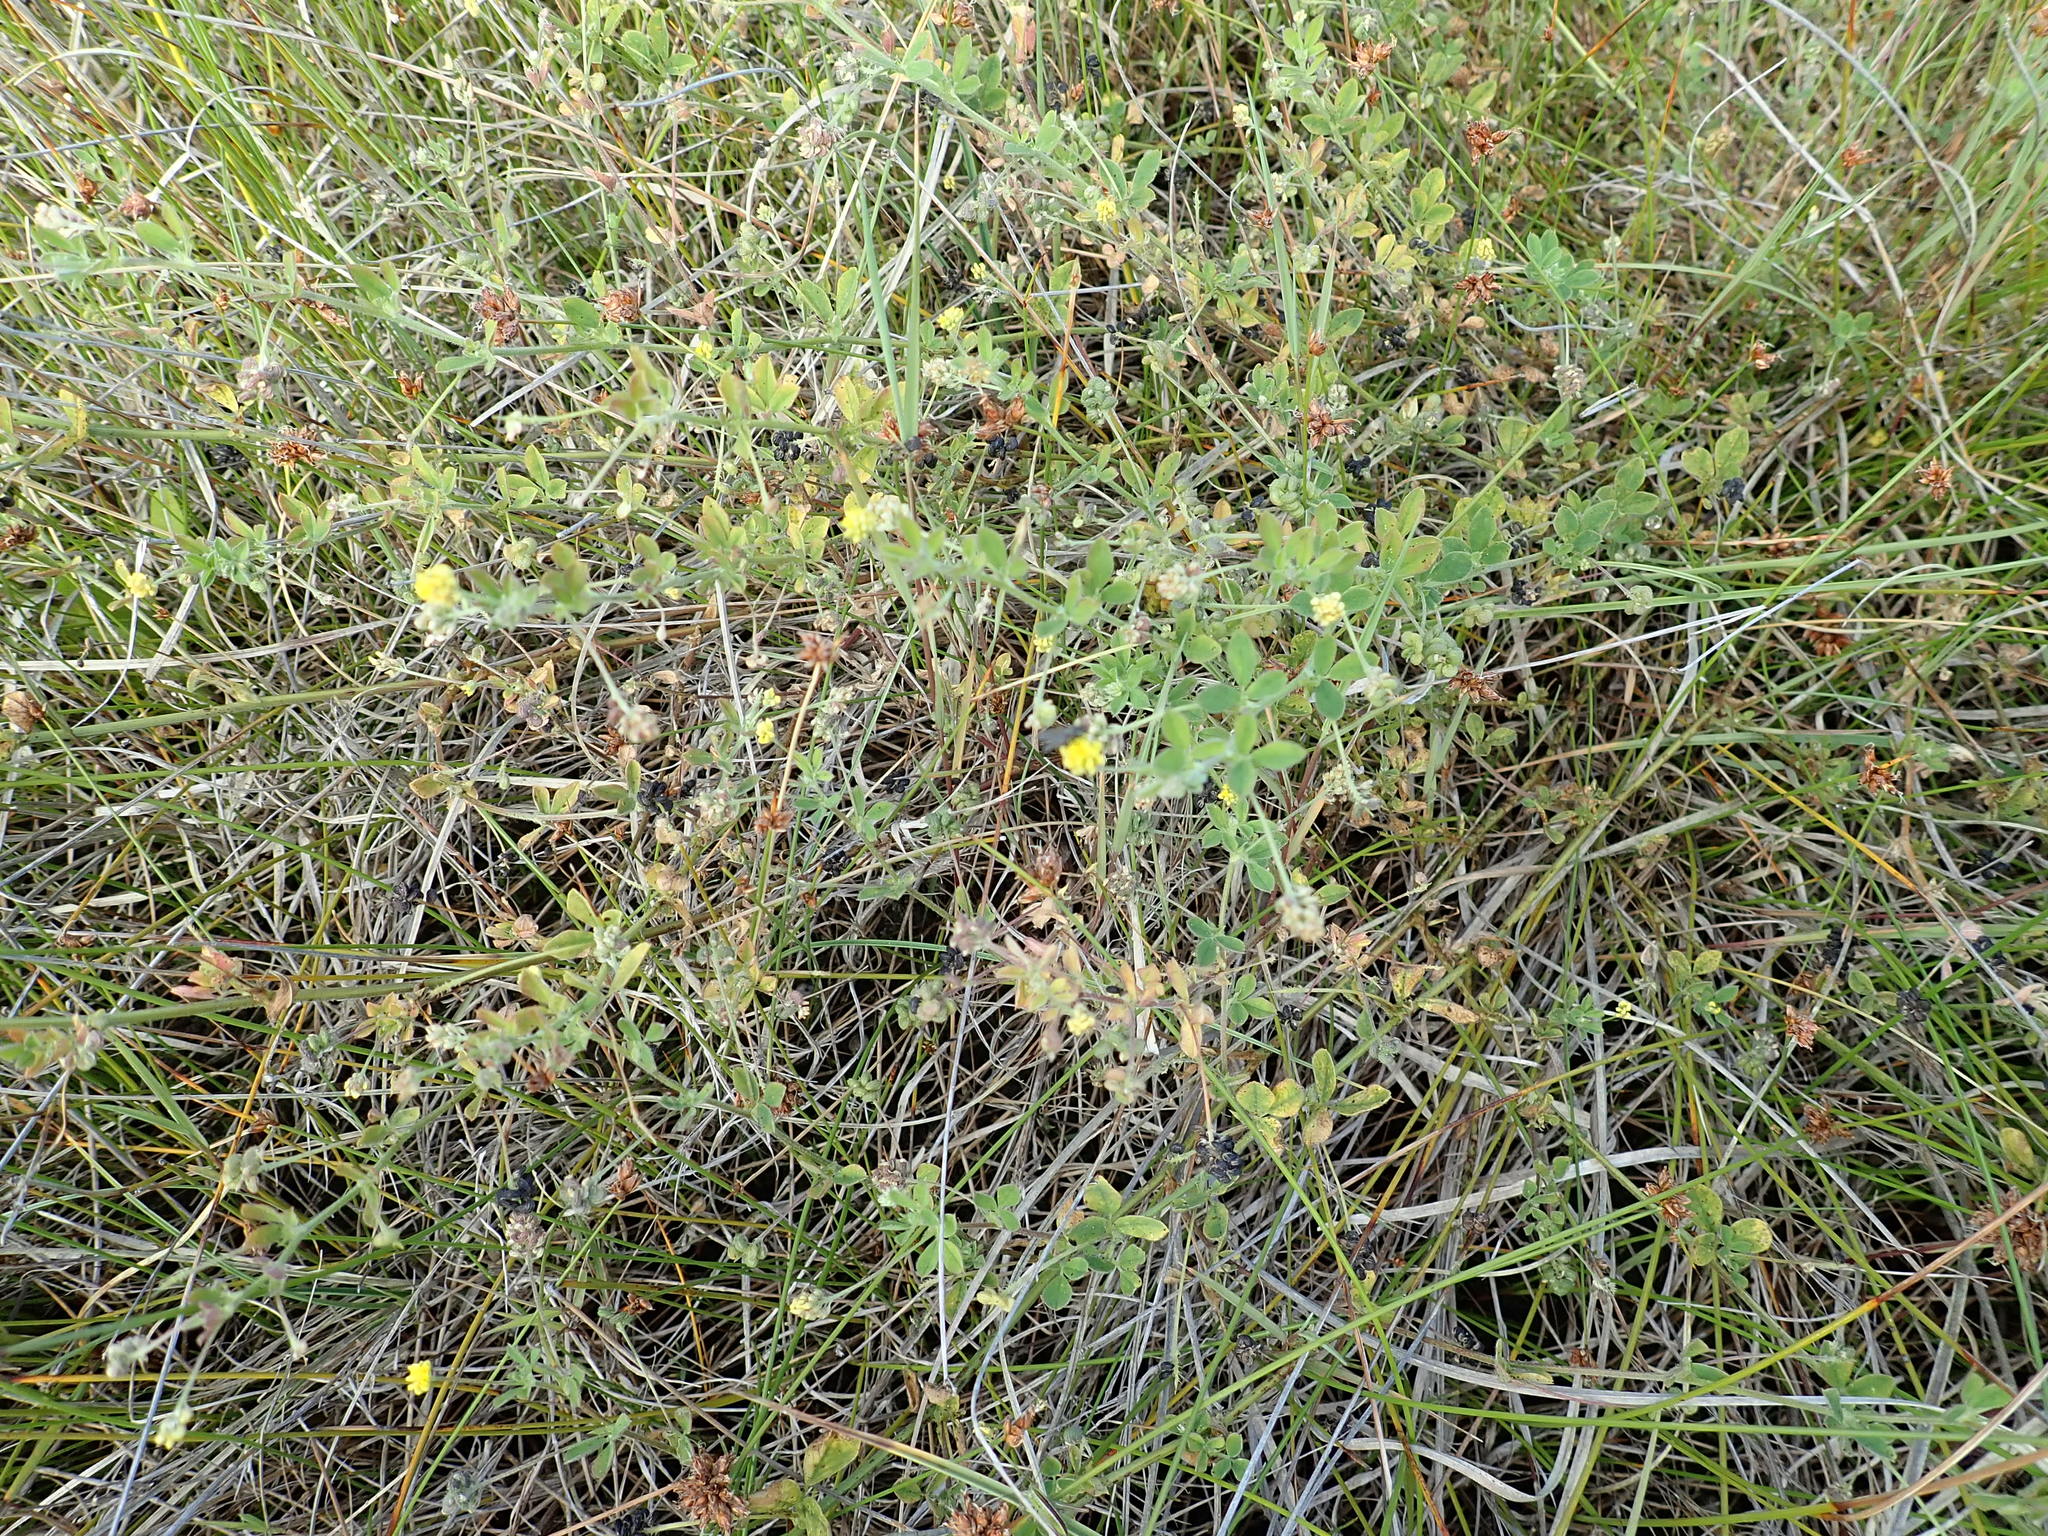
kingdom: Plantae
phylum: Tracheophyta
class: Magnoliopsida
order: Fabales
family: Fabaceae
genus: Medicago
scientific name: Medicago lupulina
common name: Black medick
